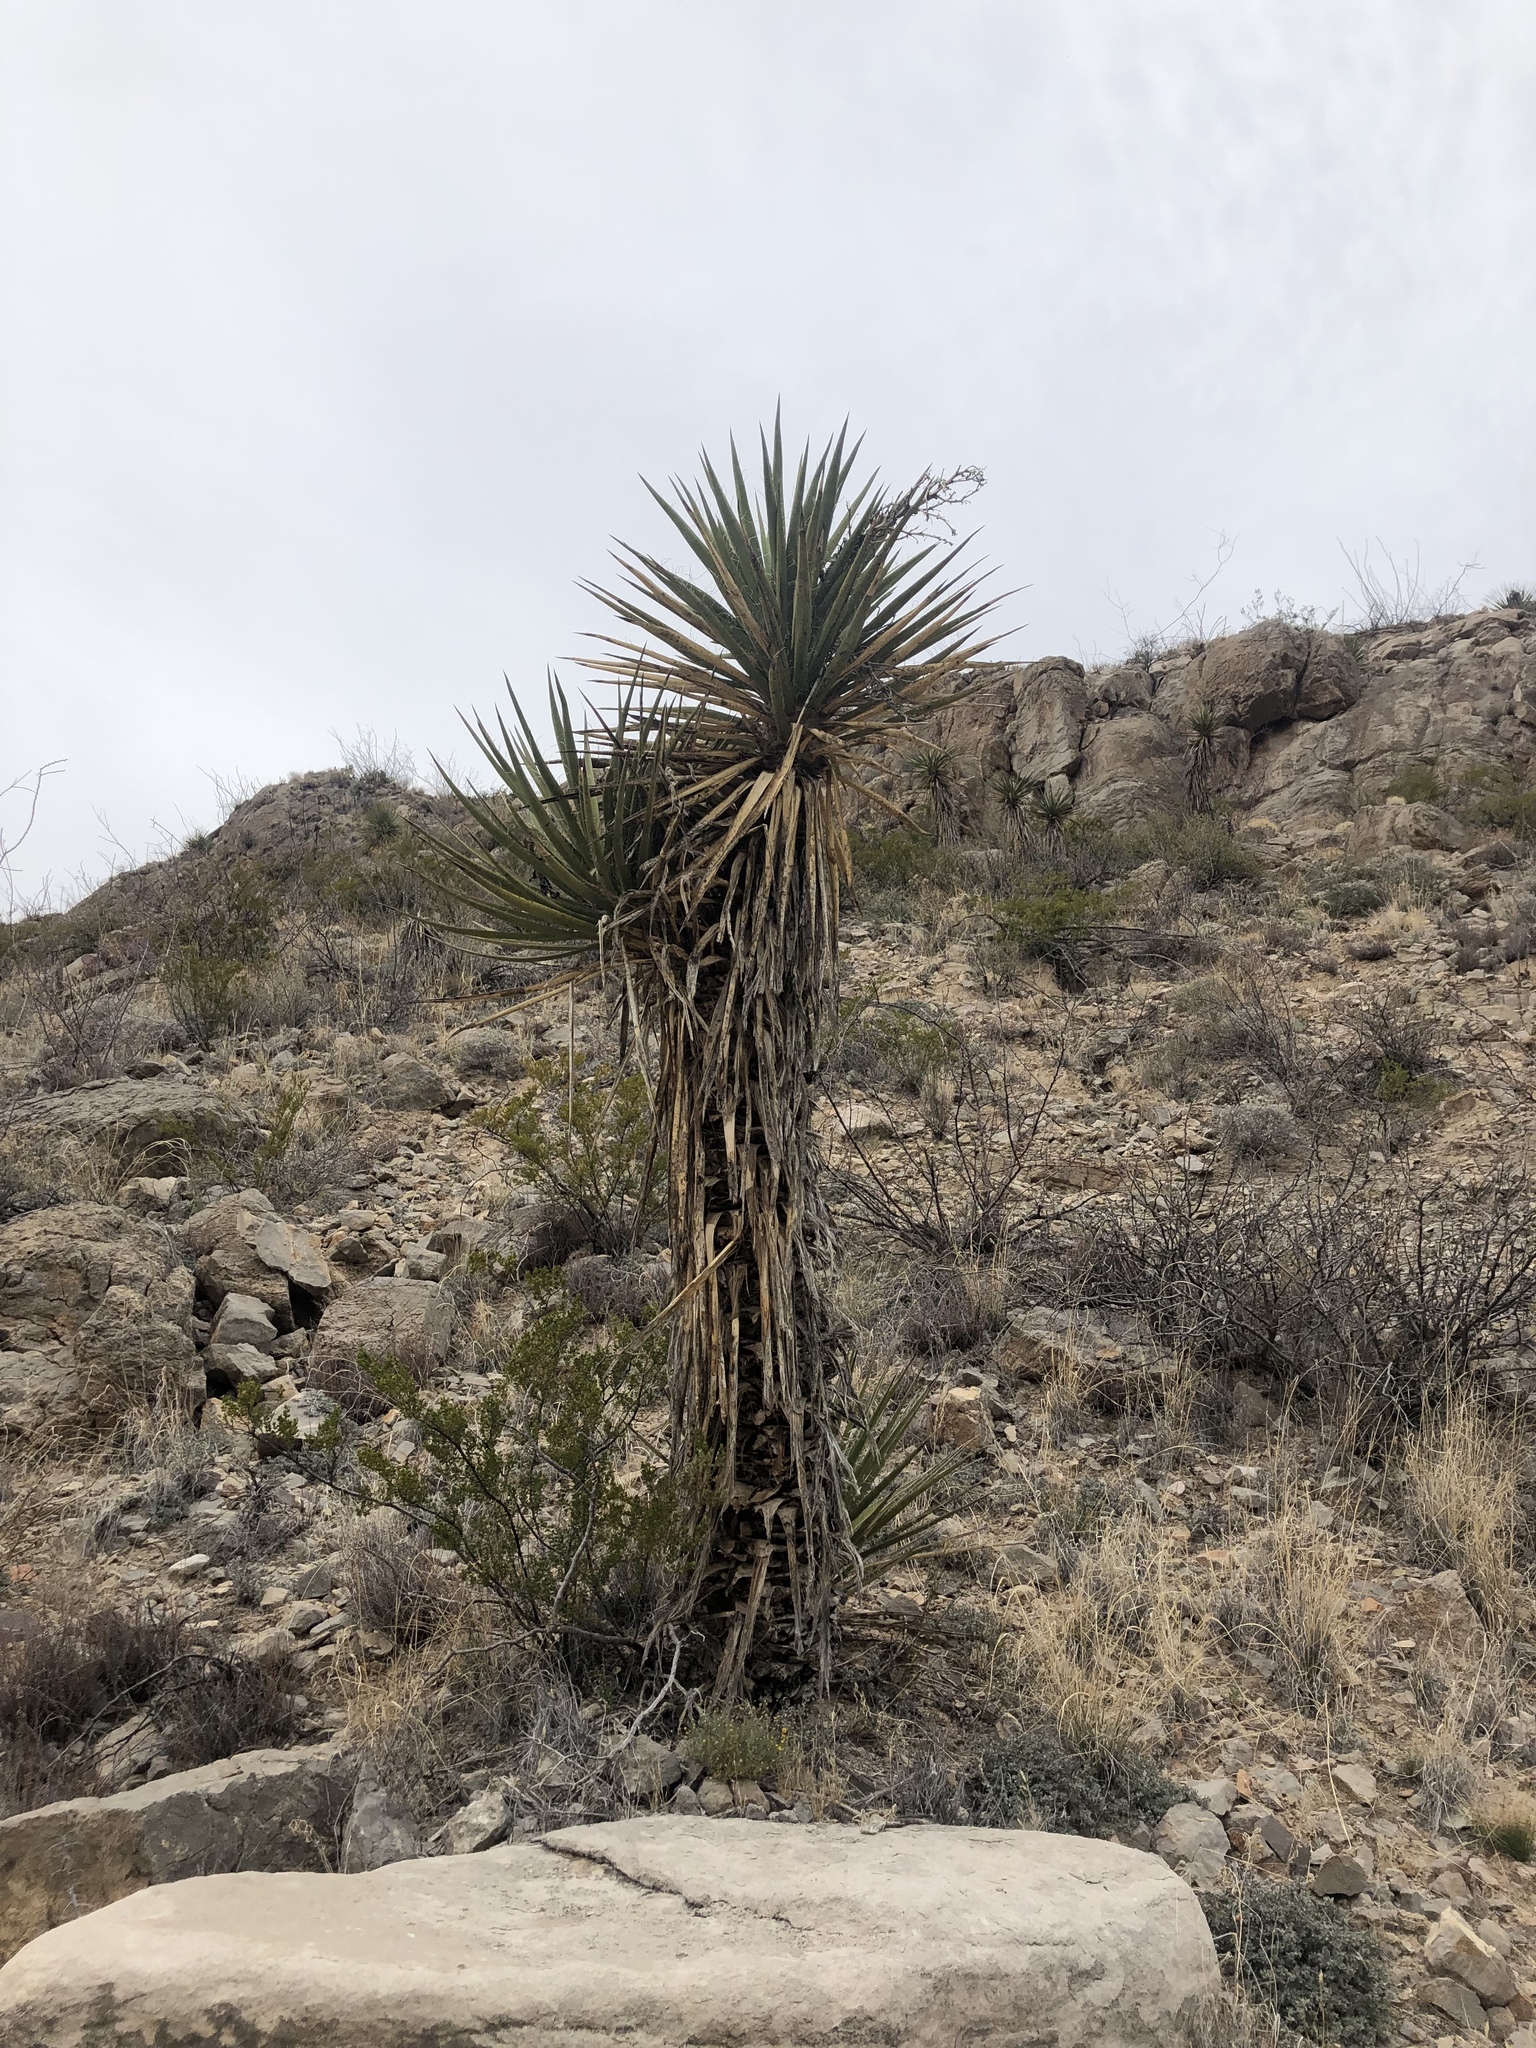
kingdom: Plantae
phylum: Tracheophyta
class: Liliopsida
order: Asparagales
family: Asparagaceae
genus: Yucca
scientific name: Yucca treculiana
